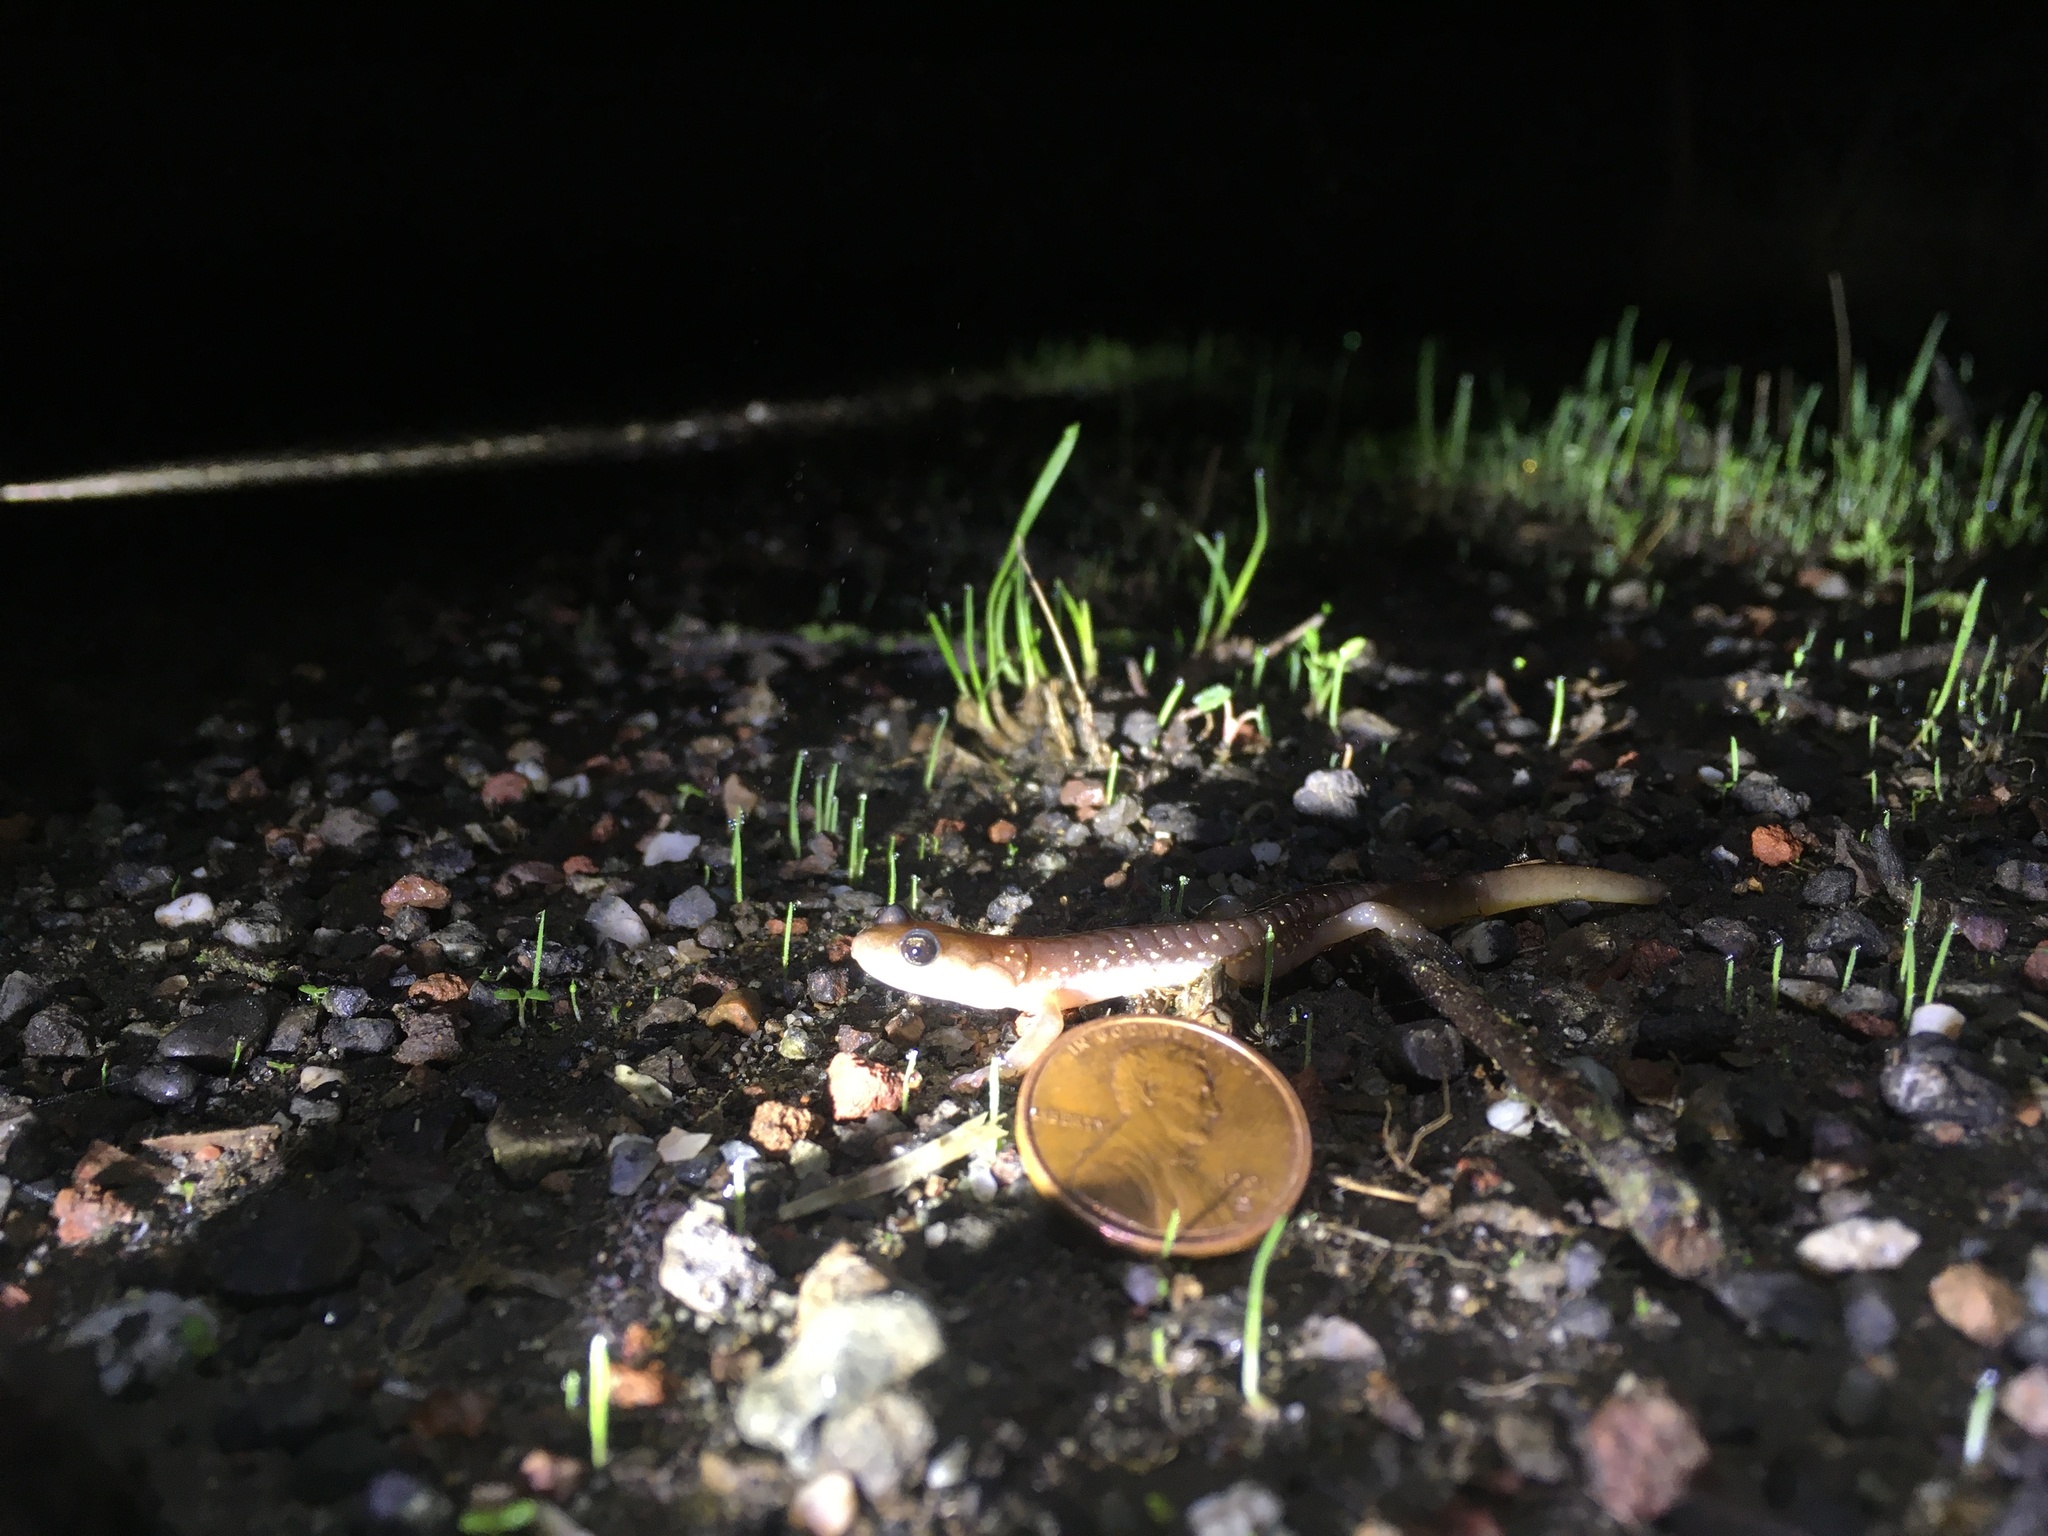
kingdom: Animalia
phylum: Chordata
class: Amphibia
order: Caudata
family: Plethodontidae
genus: Aneides
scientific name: Aneides lugubris
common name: Arboreal salamander
